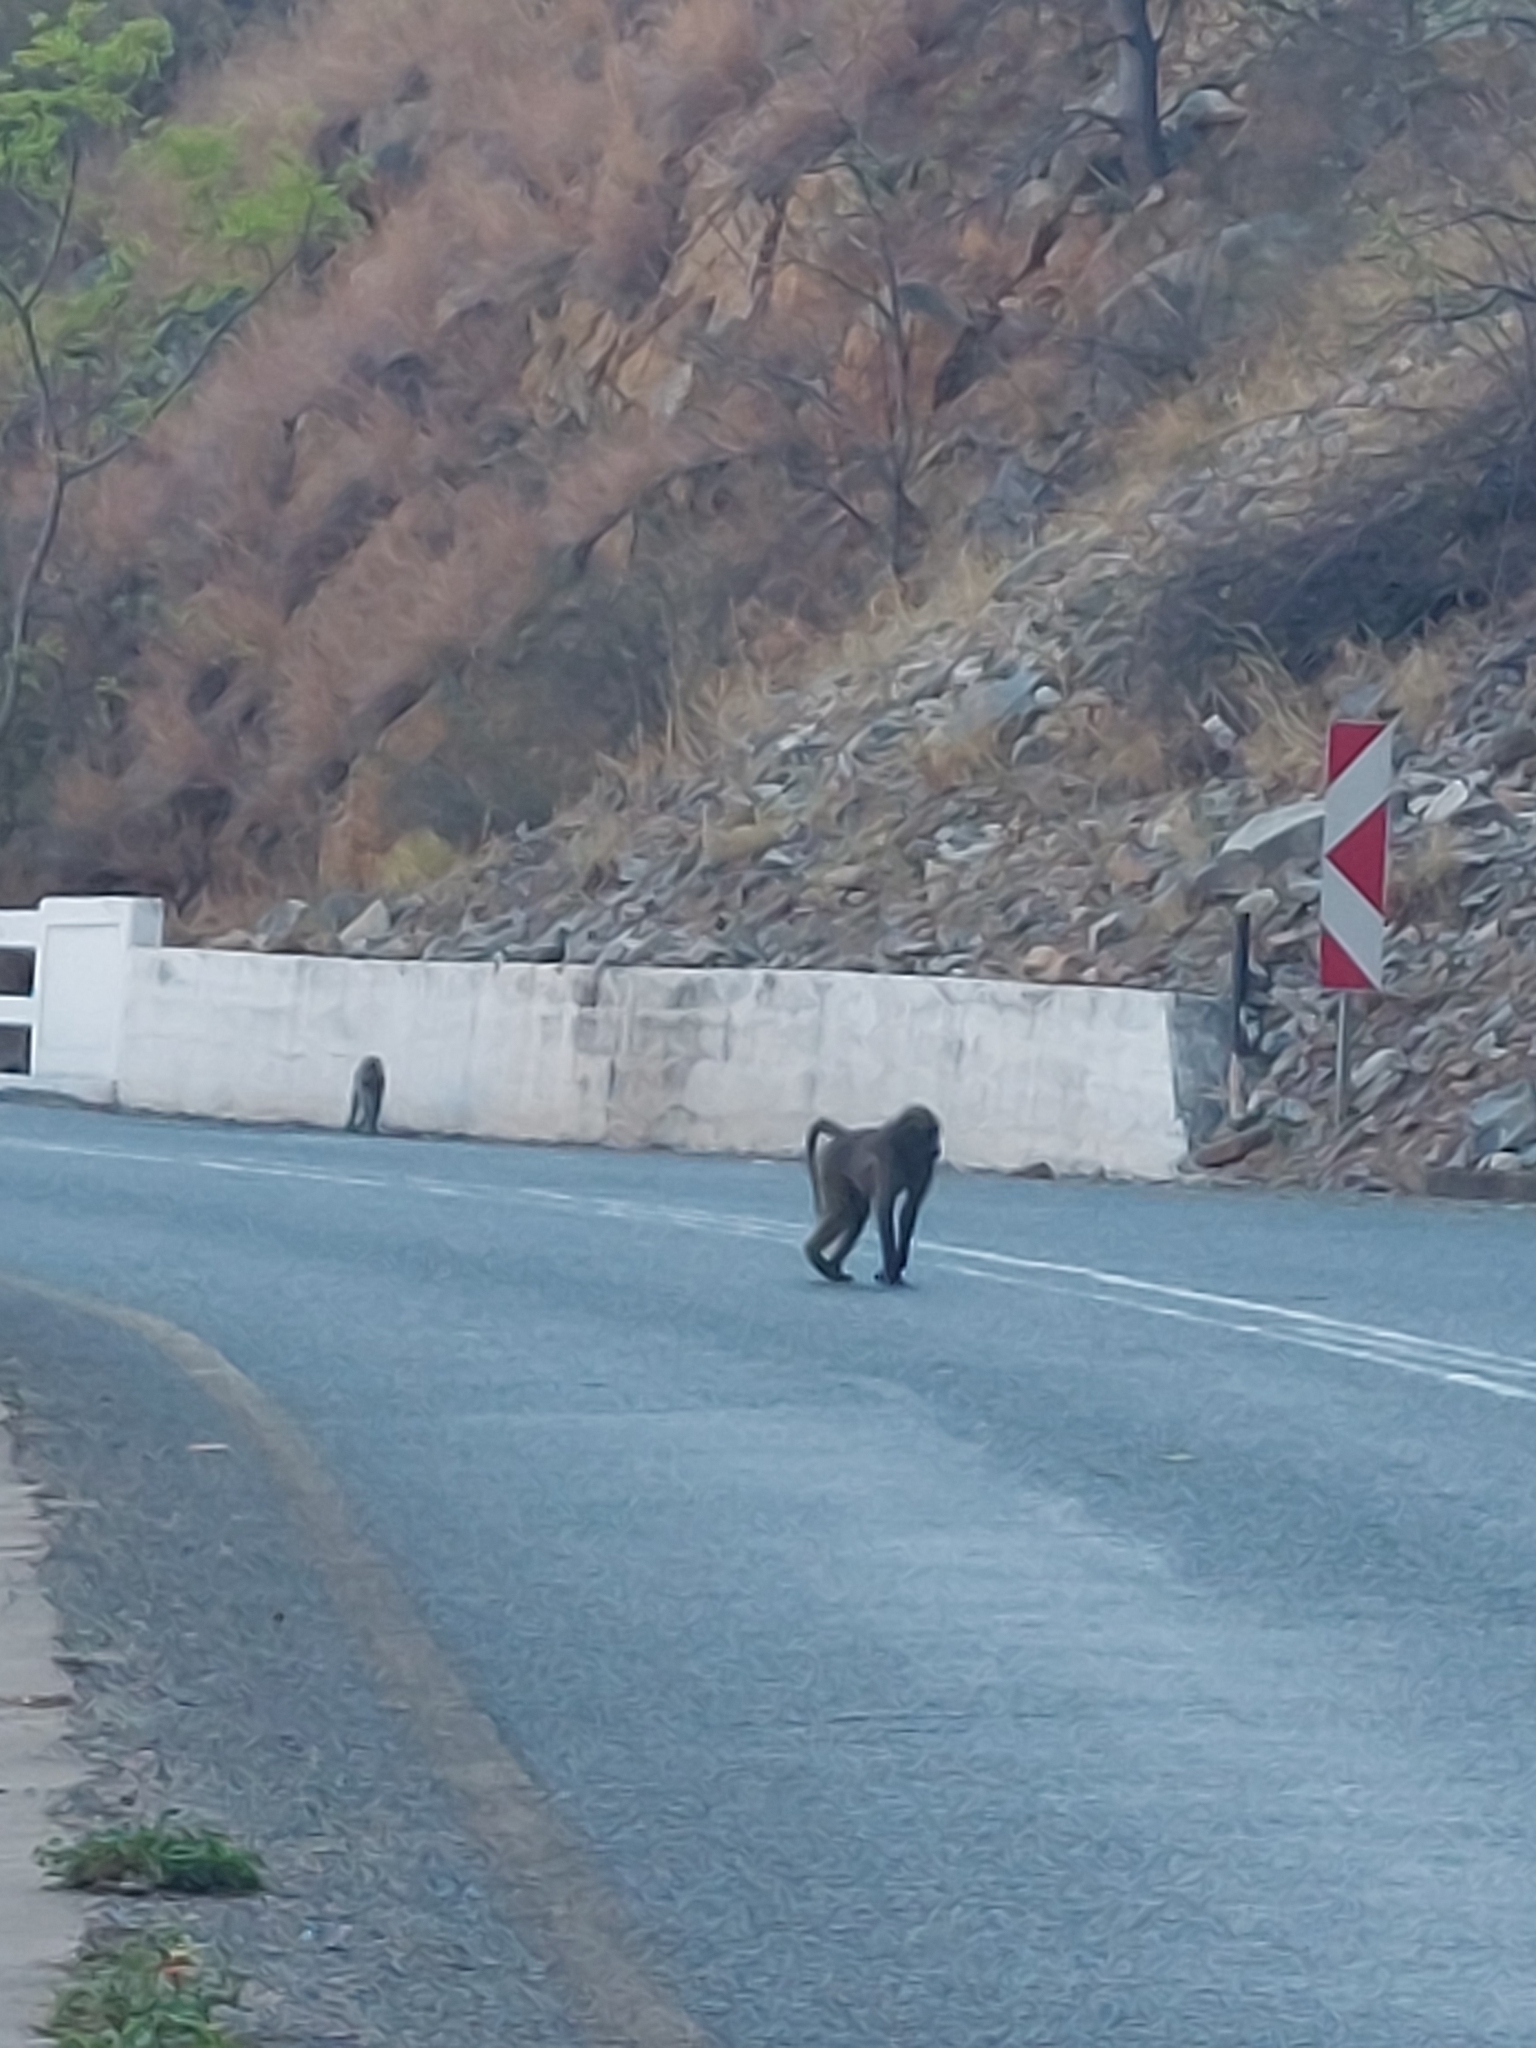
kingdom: Animalia
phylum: Chordata
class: Mammalia
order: Primates
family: Cercopithecidae
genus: Papio
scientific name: Papio ursinus
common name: Chacma baboon
